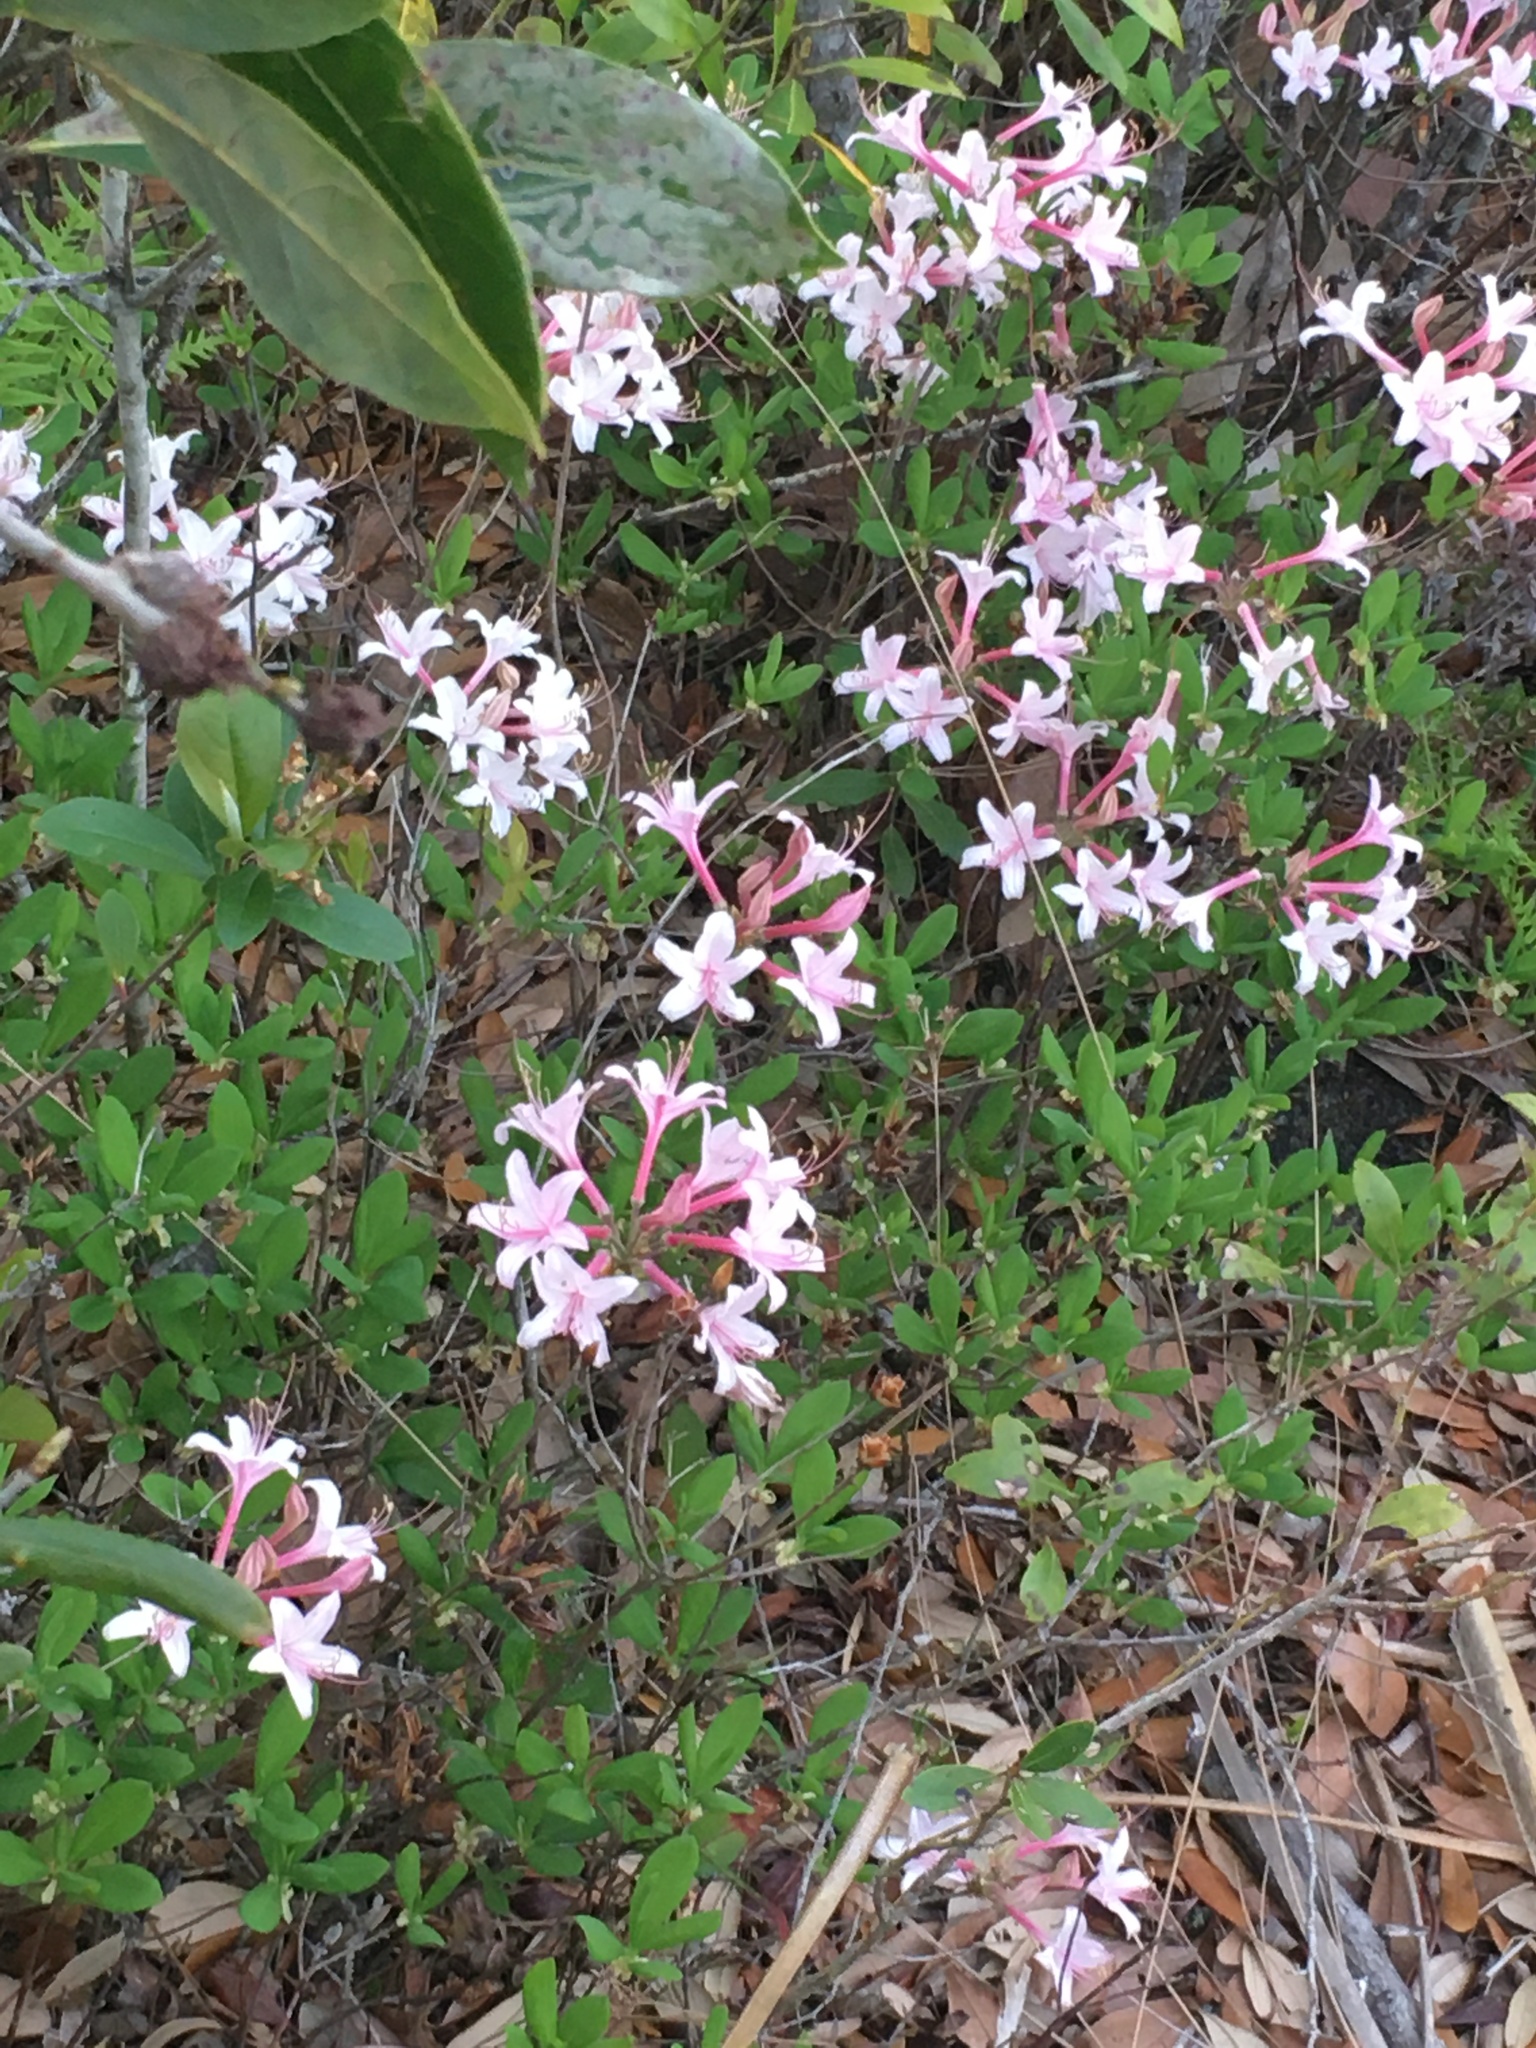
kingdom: Plantae
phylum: Tracheophyta
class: Magnoliopsida
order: Ericales
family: Ericaceae
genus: Rhododendron
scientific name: Rhododendron atlanticum
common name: Dwarf azalea
